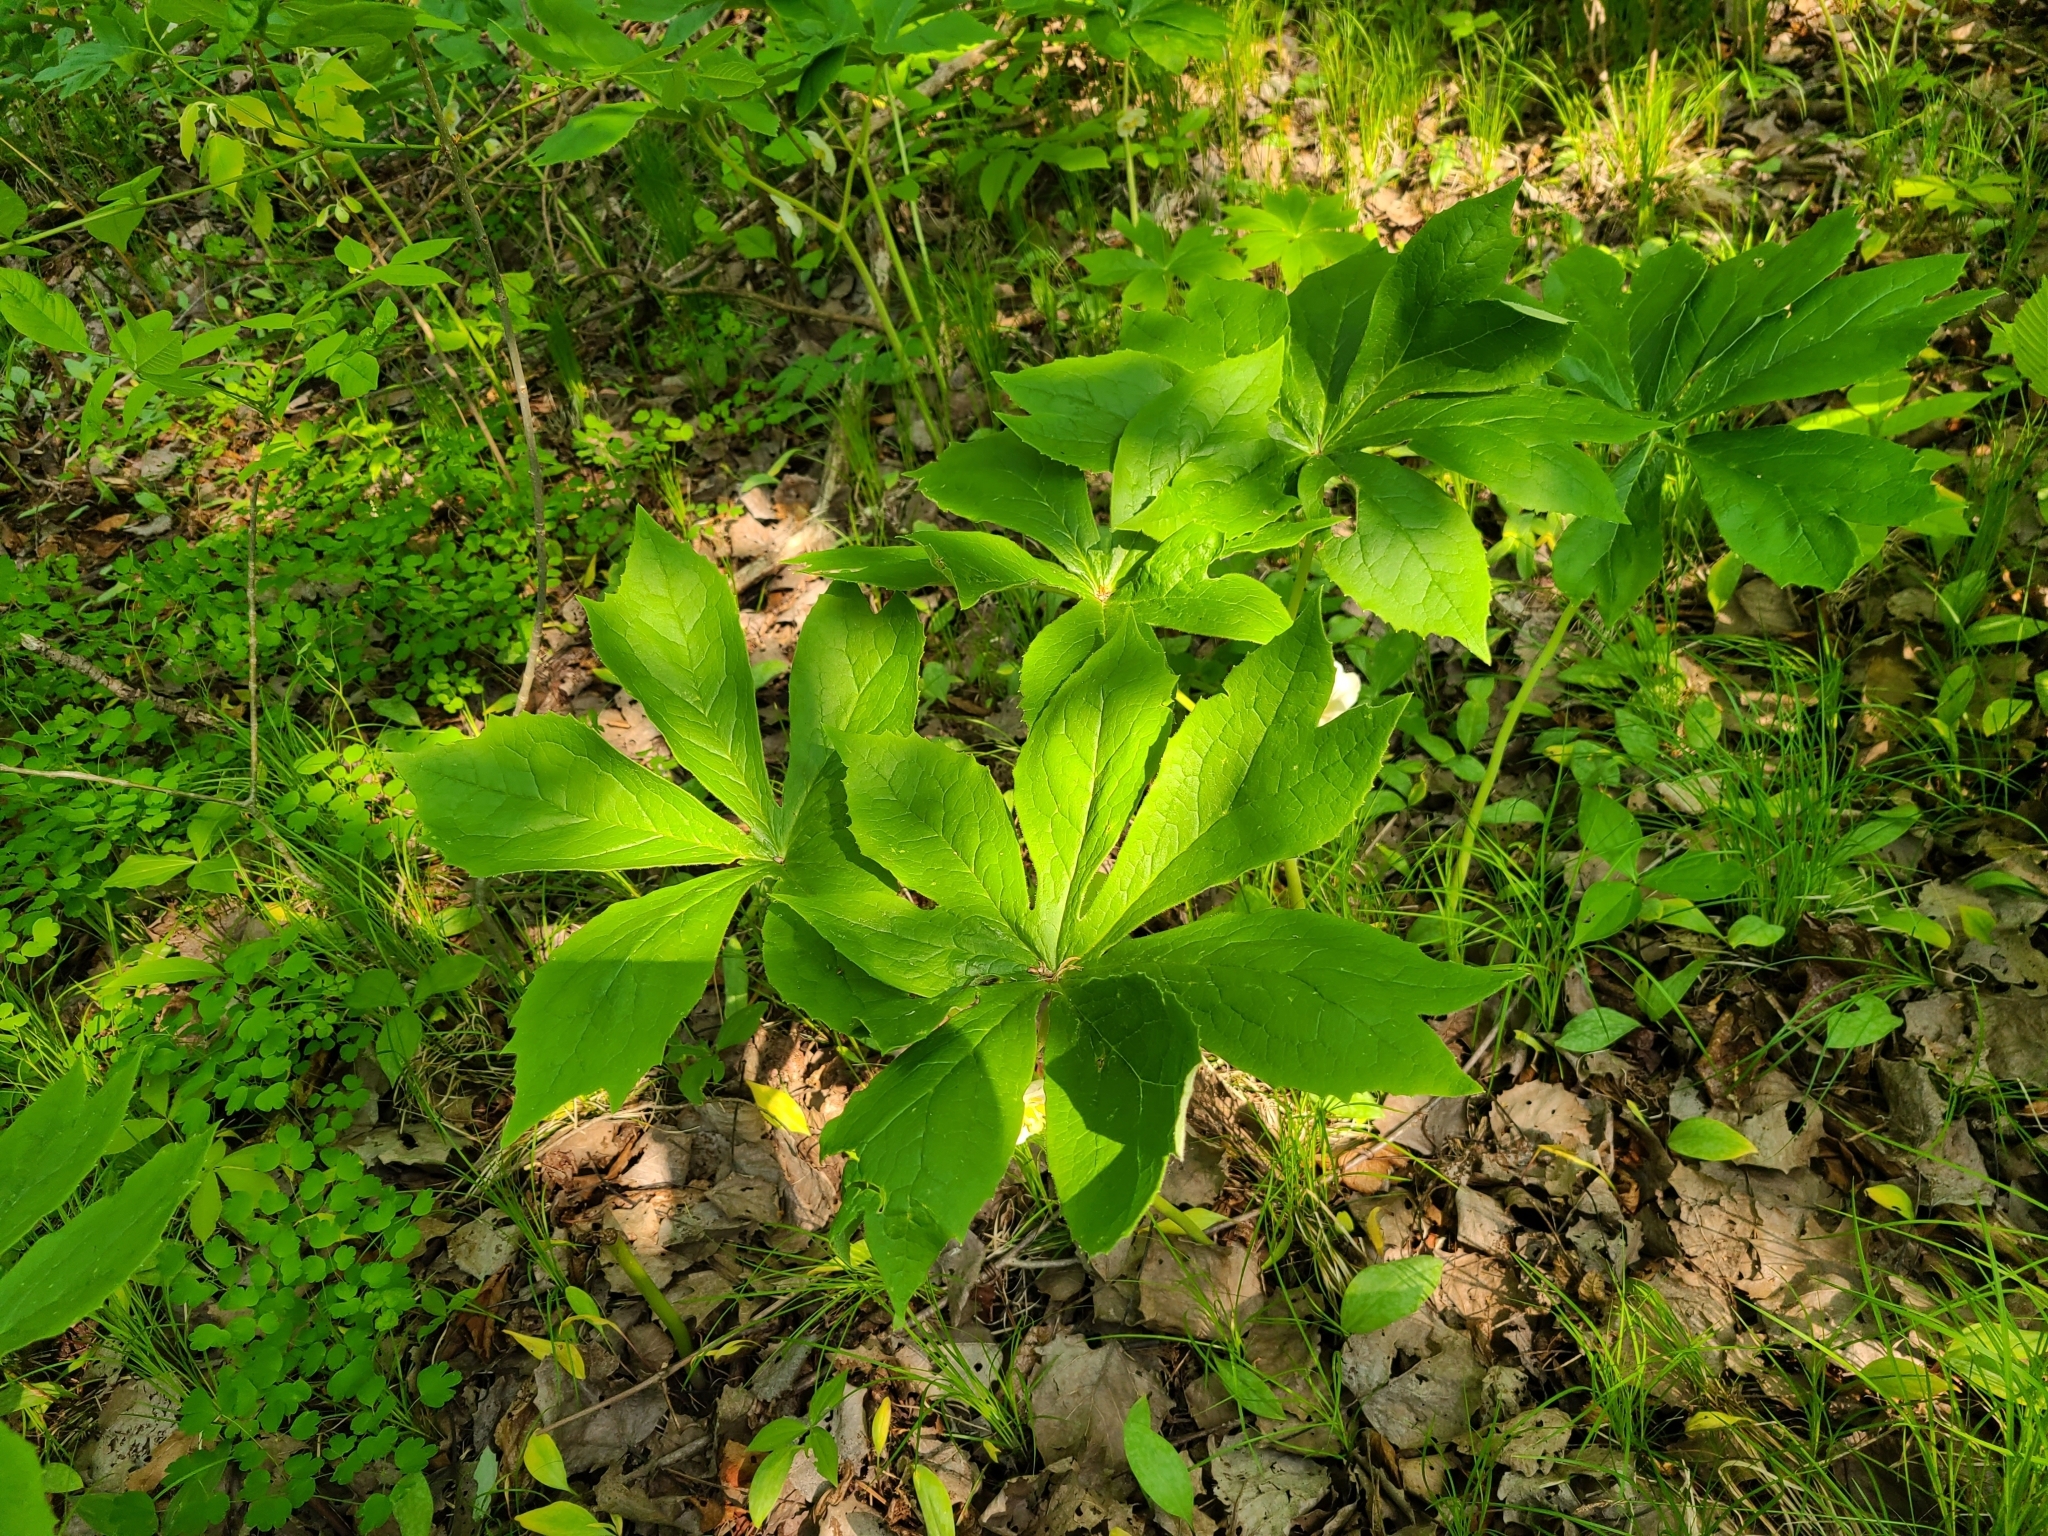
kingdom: Plantae
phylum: Tracheophyta
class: Magnoliopsida
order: Ranunculales
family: Berberidaceae
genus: Podophyllum
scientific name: Podophyllum peltatum
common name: Wild mandrake
